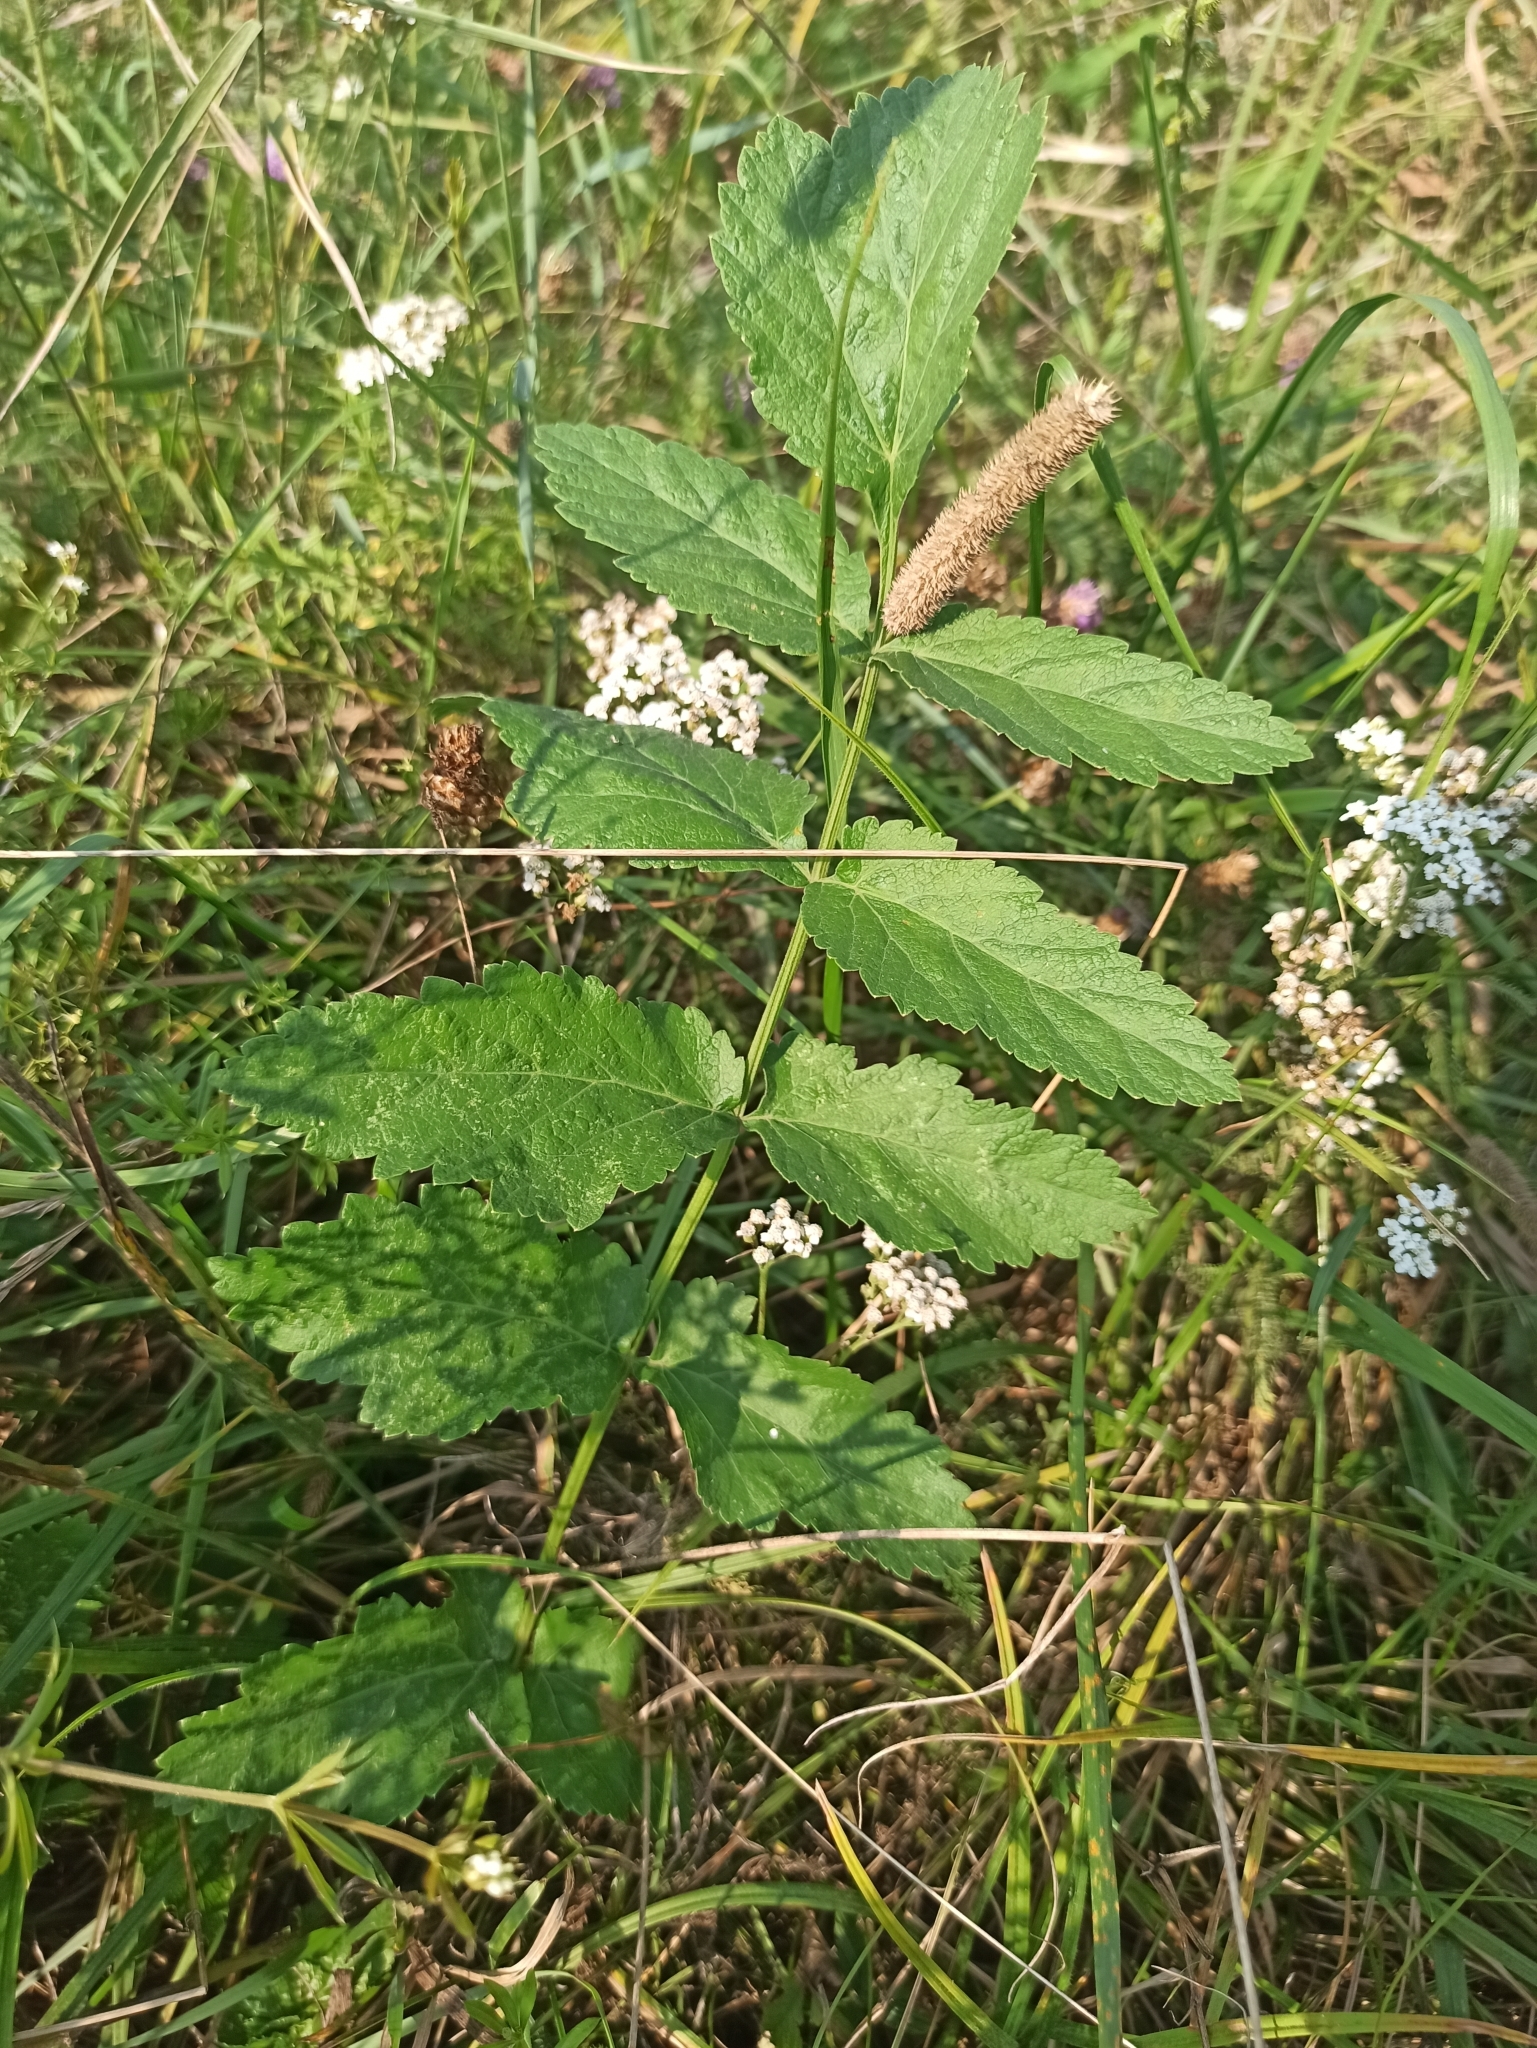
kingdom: Plantae
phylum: Tracheophyta
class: Magnoliopsida
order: Apiales
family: Apiaceae
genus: Pastinaca
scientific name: Pastinaca sativa
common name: Wild parsnip
